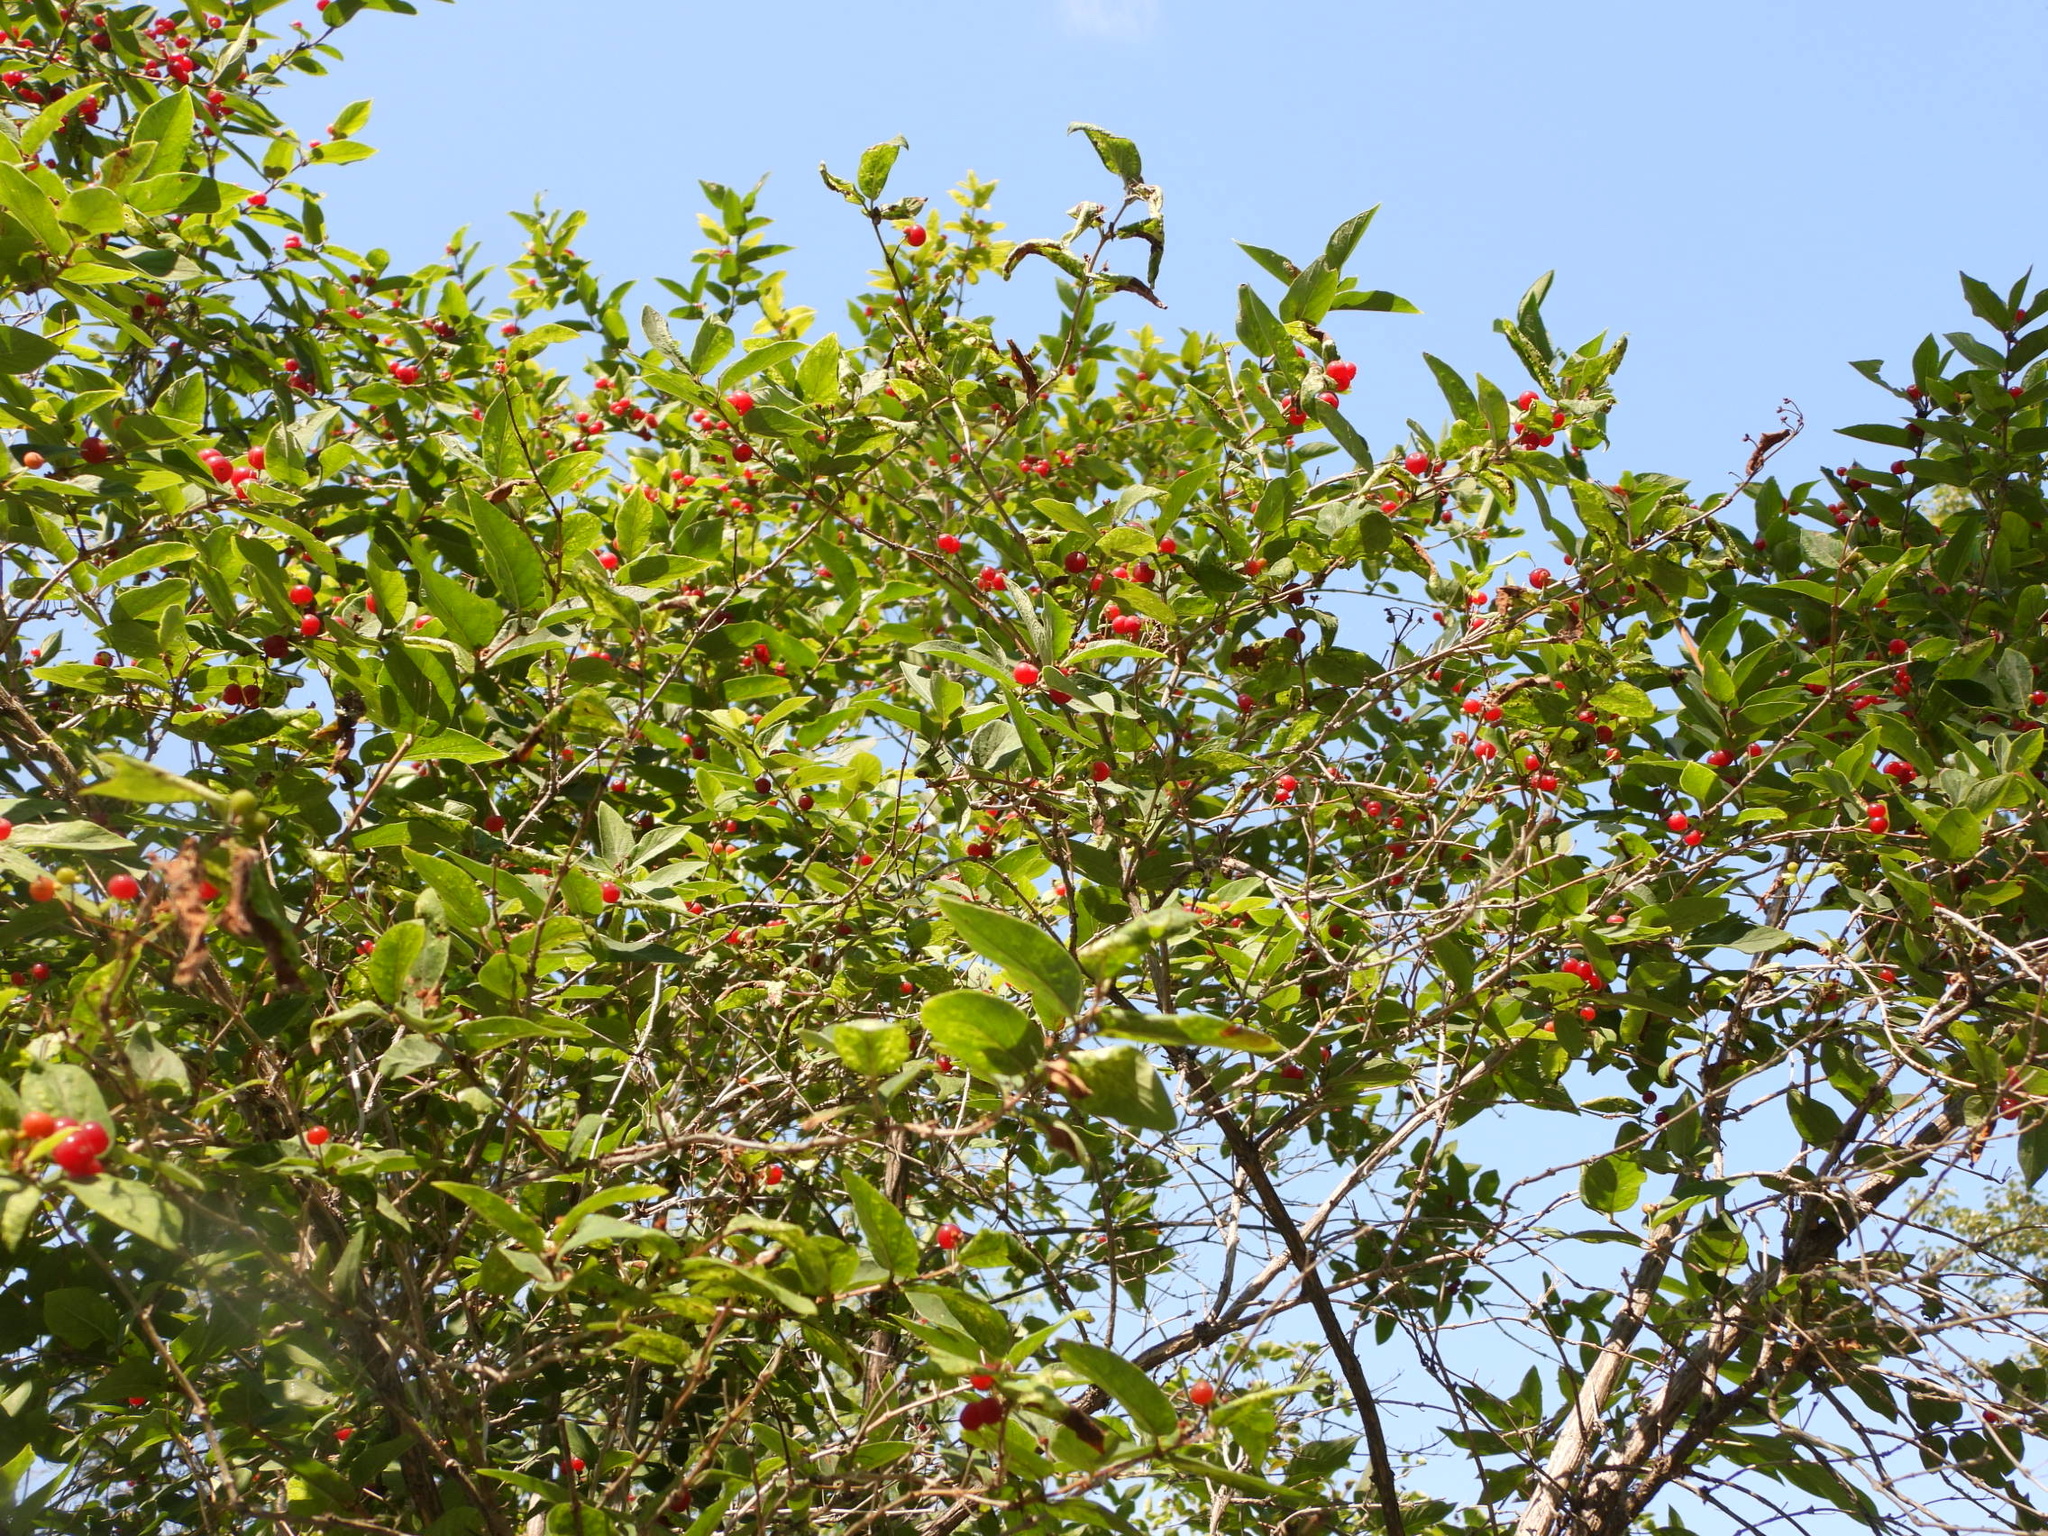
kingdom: Plantae
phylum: Tracheophyta
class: Magnoliopsida
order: Dipsacales
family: Caprifoliaceae
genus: Lonicera
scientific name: Lonicera tatarica
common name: Tatarian honeysuckle
